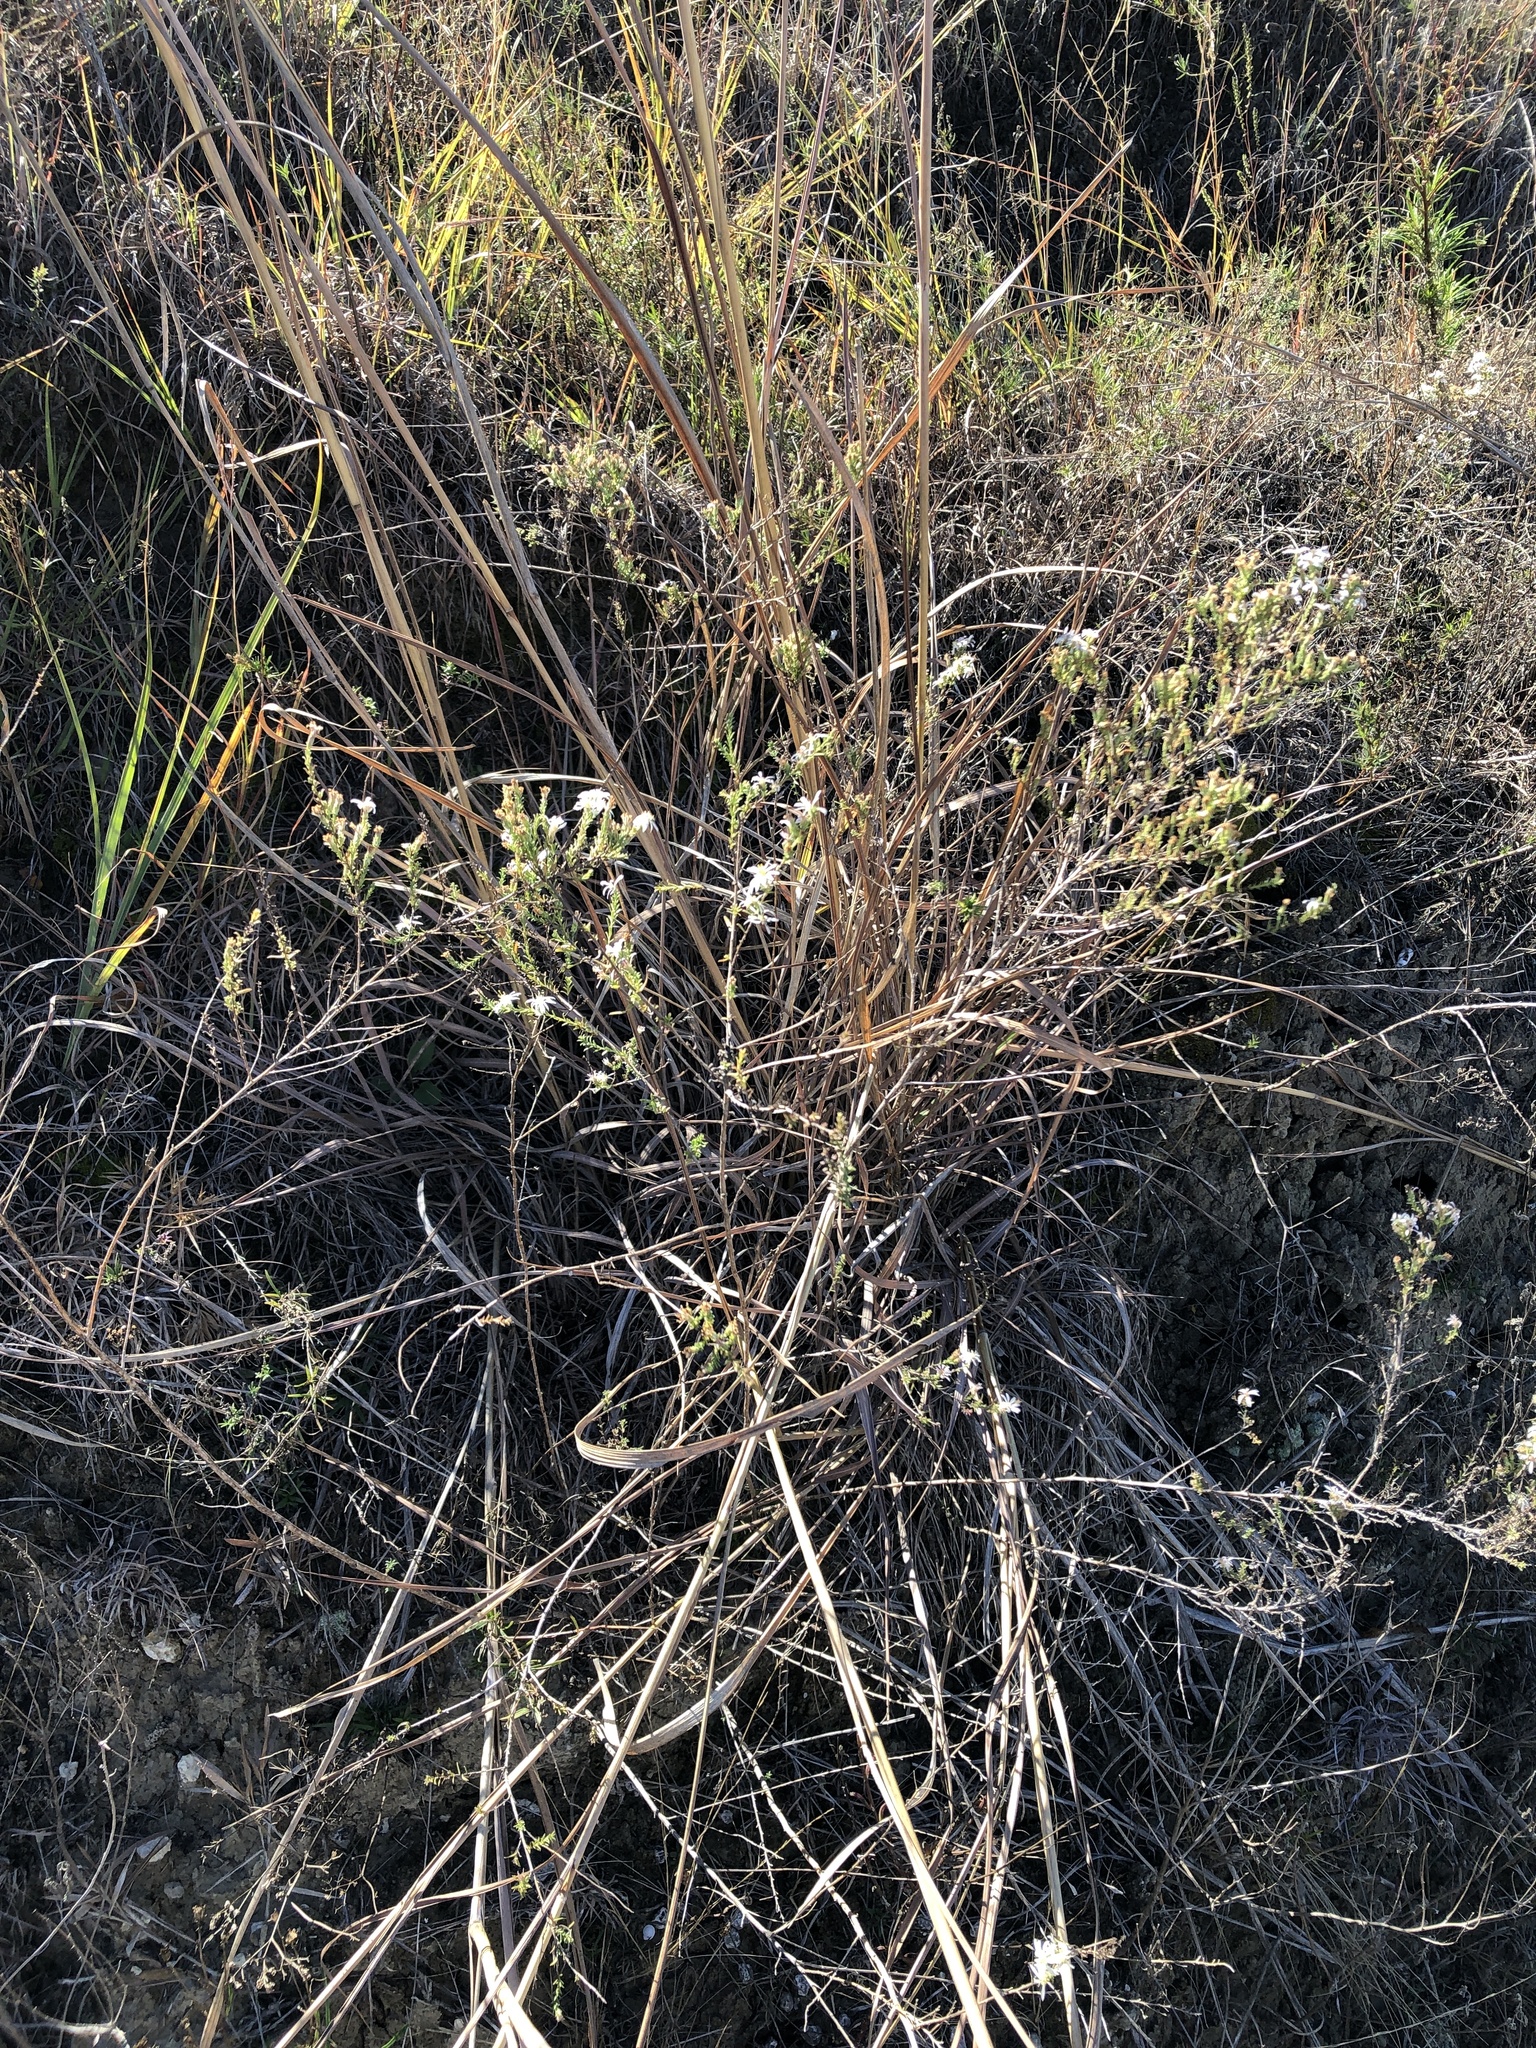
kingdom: Plantae
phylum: Tracheophyta
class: Magnoliopsida
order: Asterales
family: Asteraceae
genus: Symphyotrichum
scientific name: Symphyotrichum ericoides
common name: Heath aster
